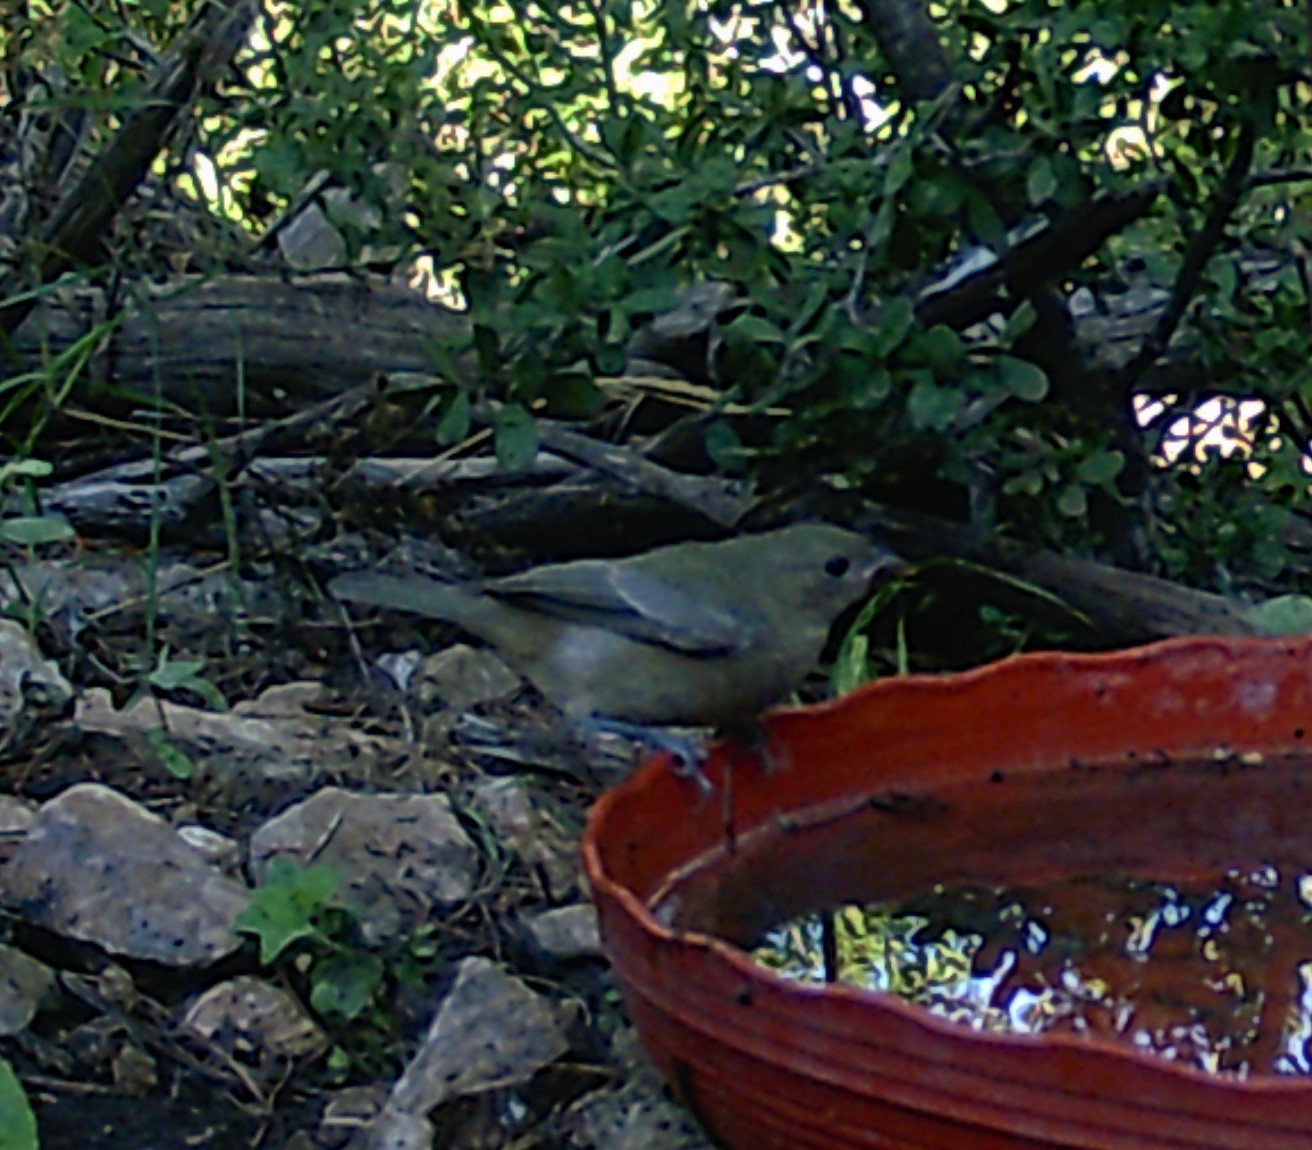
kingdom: Animalia
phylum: Chordata
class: Aves
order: Passeriformes
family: Cardinalidae
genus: Passerina
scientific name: Passerina ciris
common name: Painted bunting
